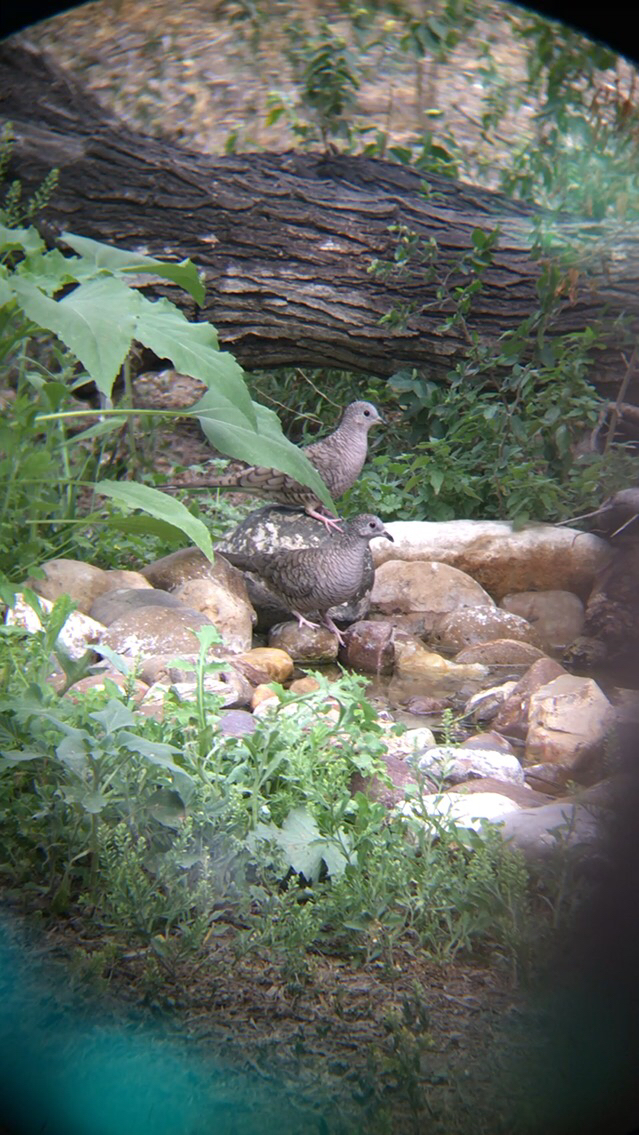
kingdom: Animalia
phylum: Chordata
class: Aves
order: Columbiformes
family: Columbidae
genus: Columbina
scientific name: Columbina inca
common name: Inca dove
